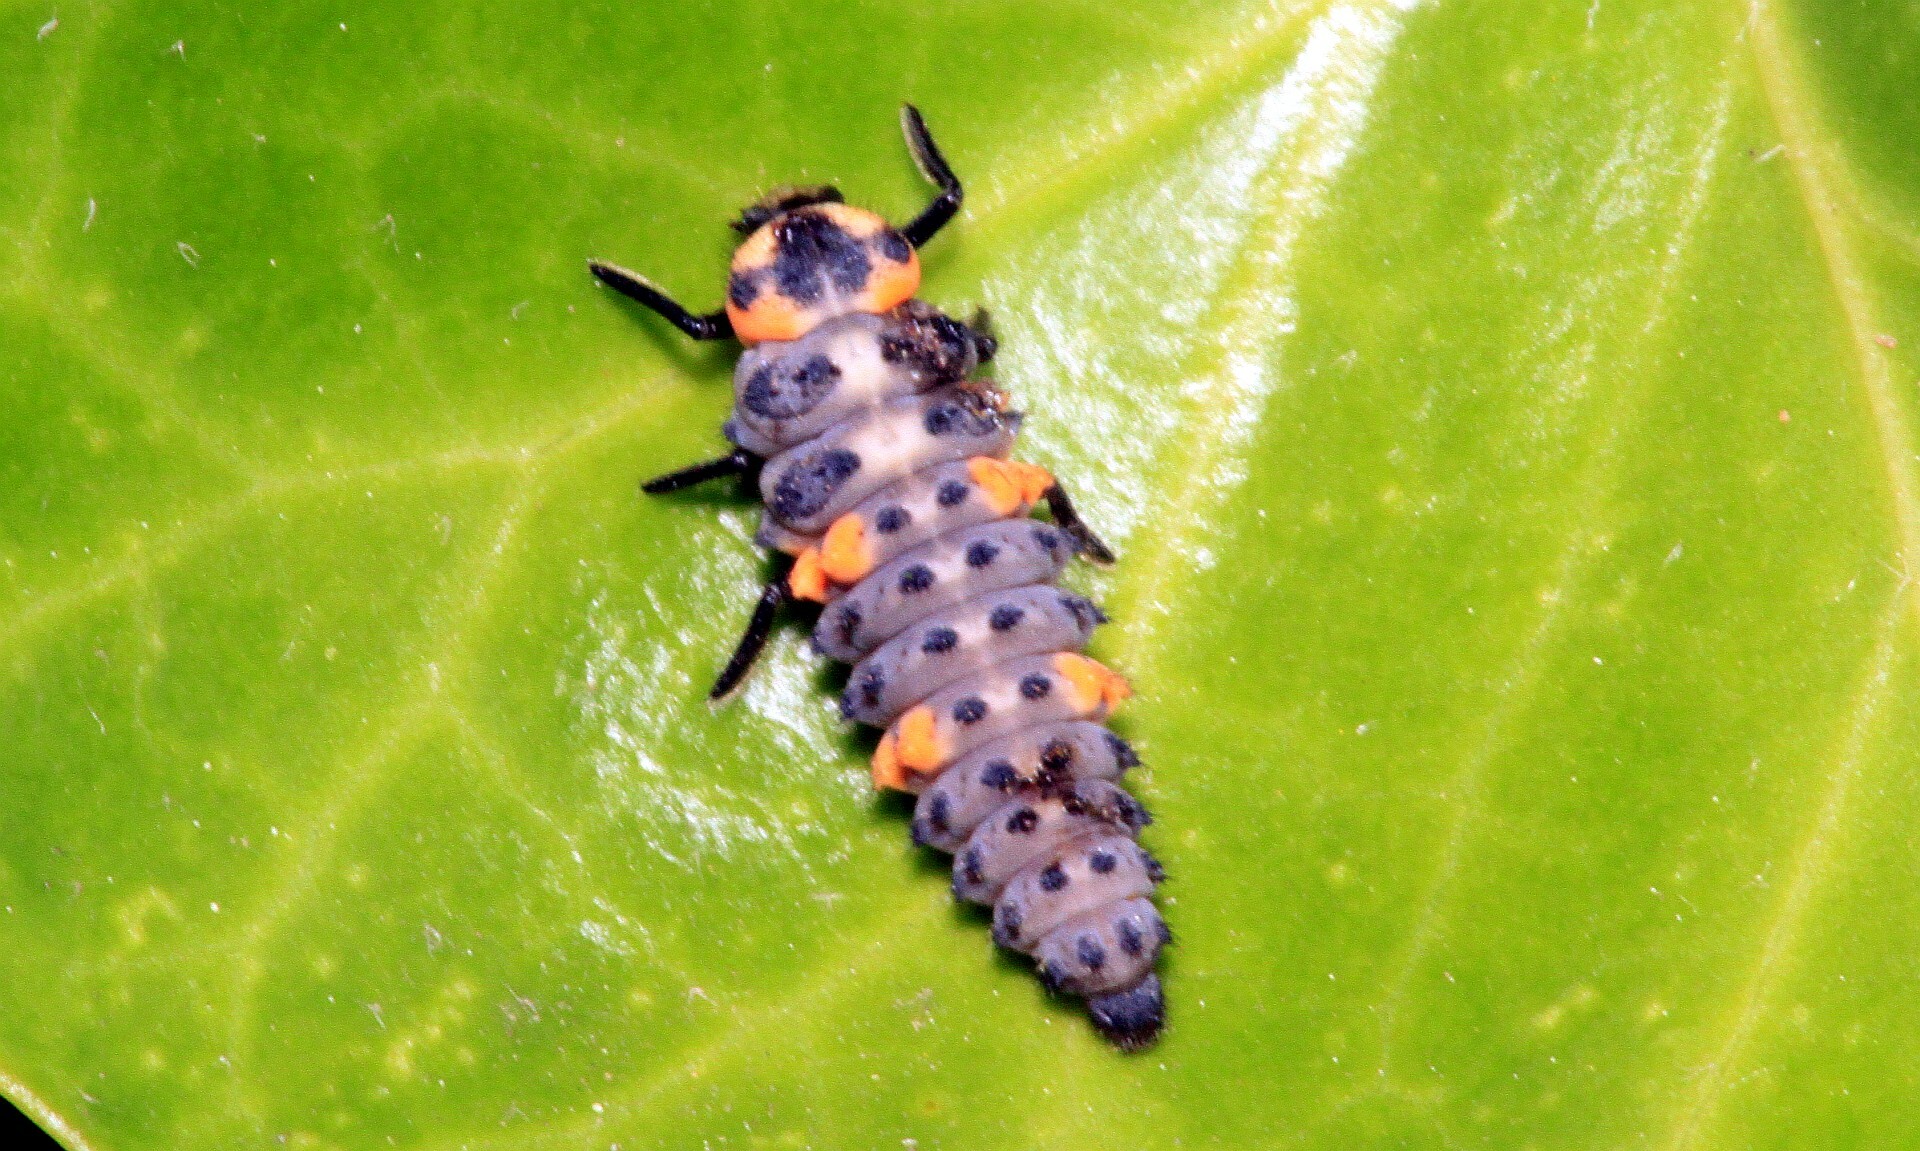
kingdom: Animalia
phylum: Arthropoda
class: Insecta
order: Coleoptera
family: Coccinellidae
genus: Coccinella
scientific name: Coccinella septempunctata
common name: Sevenspotted lady beetle
